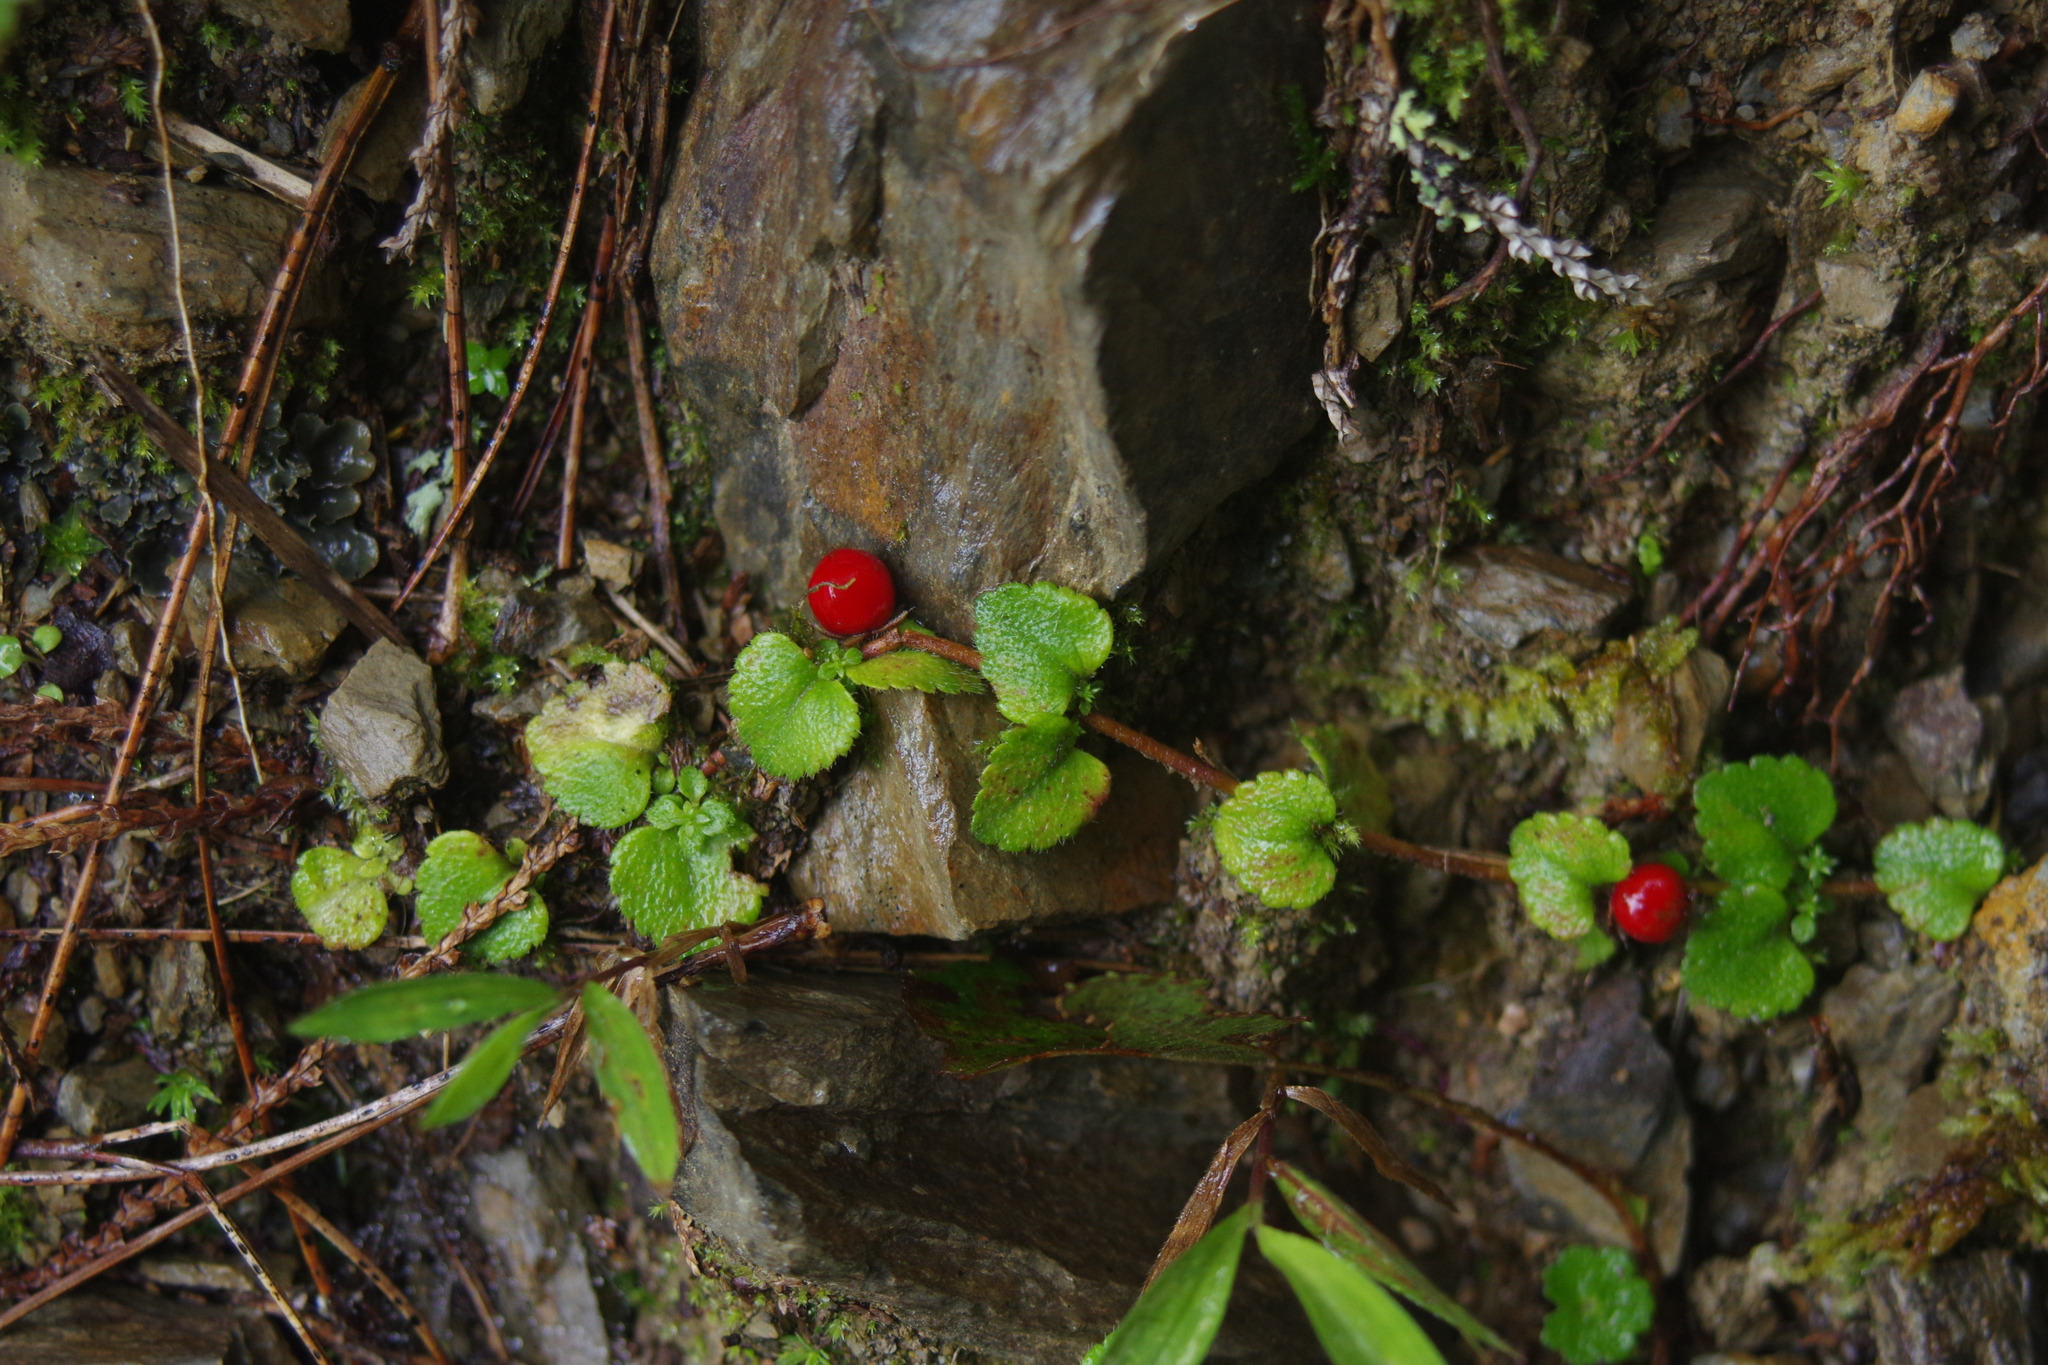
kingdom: Plantae
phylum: Tracheophyta
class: Magnoliopsida
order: Lamiales
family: Plantaginaceae
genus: Hemiphragma
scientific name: Hemiphragma heterophyllum
